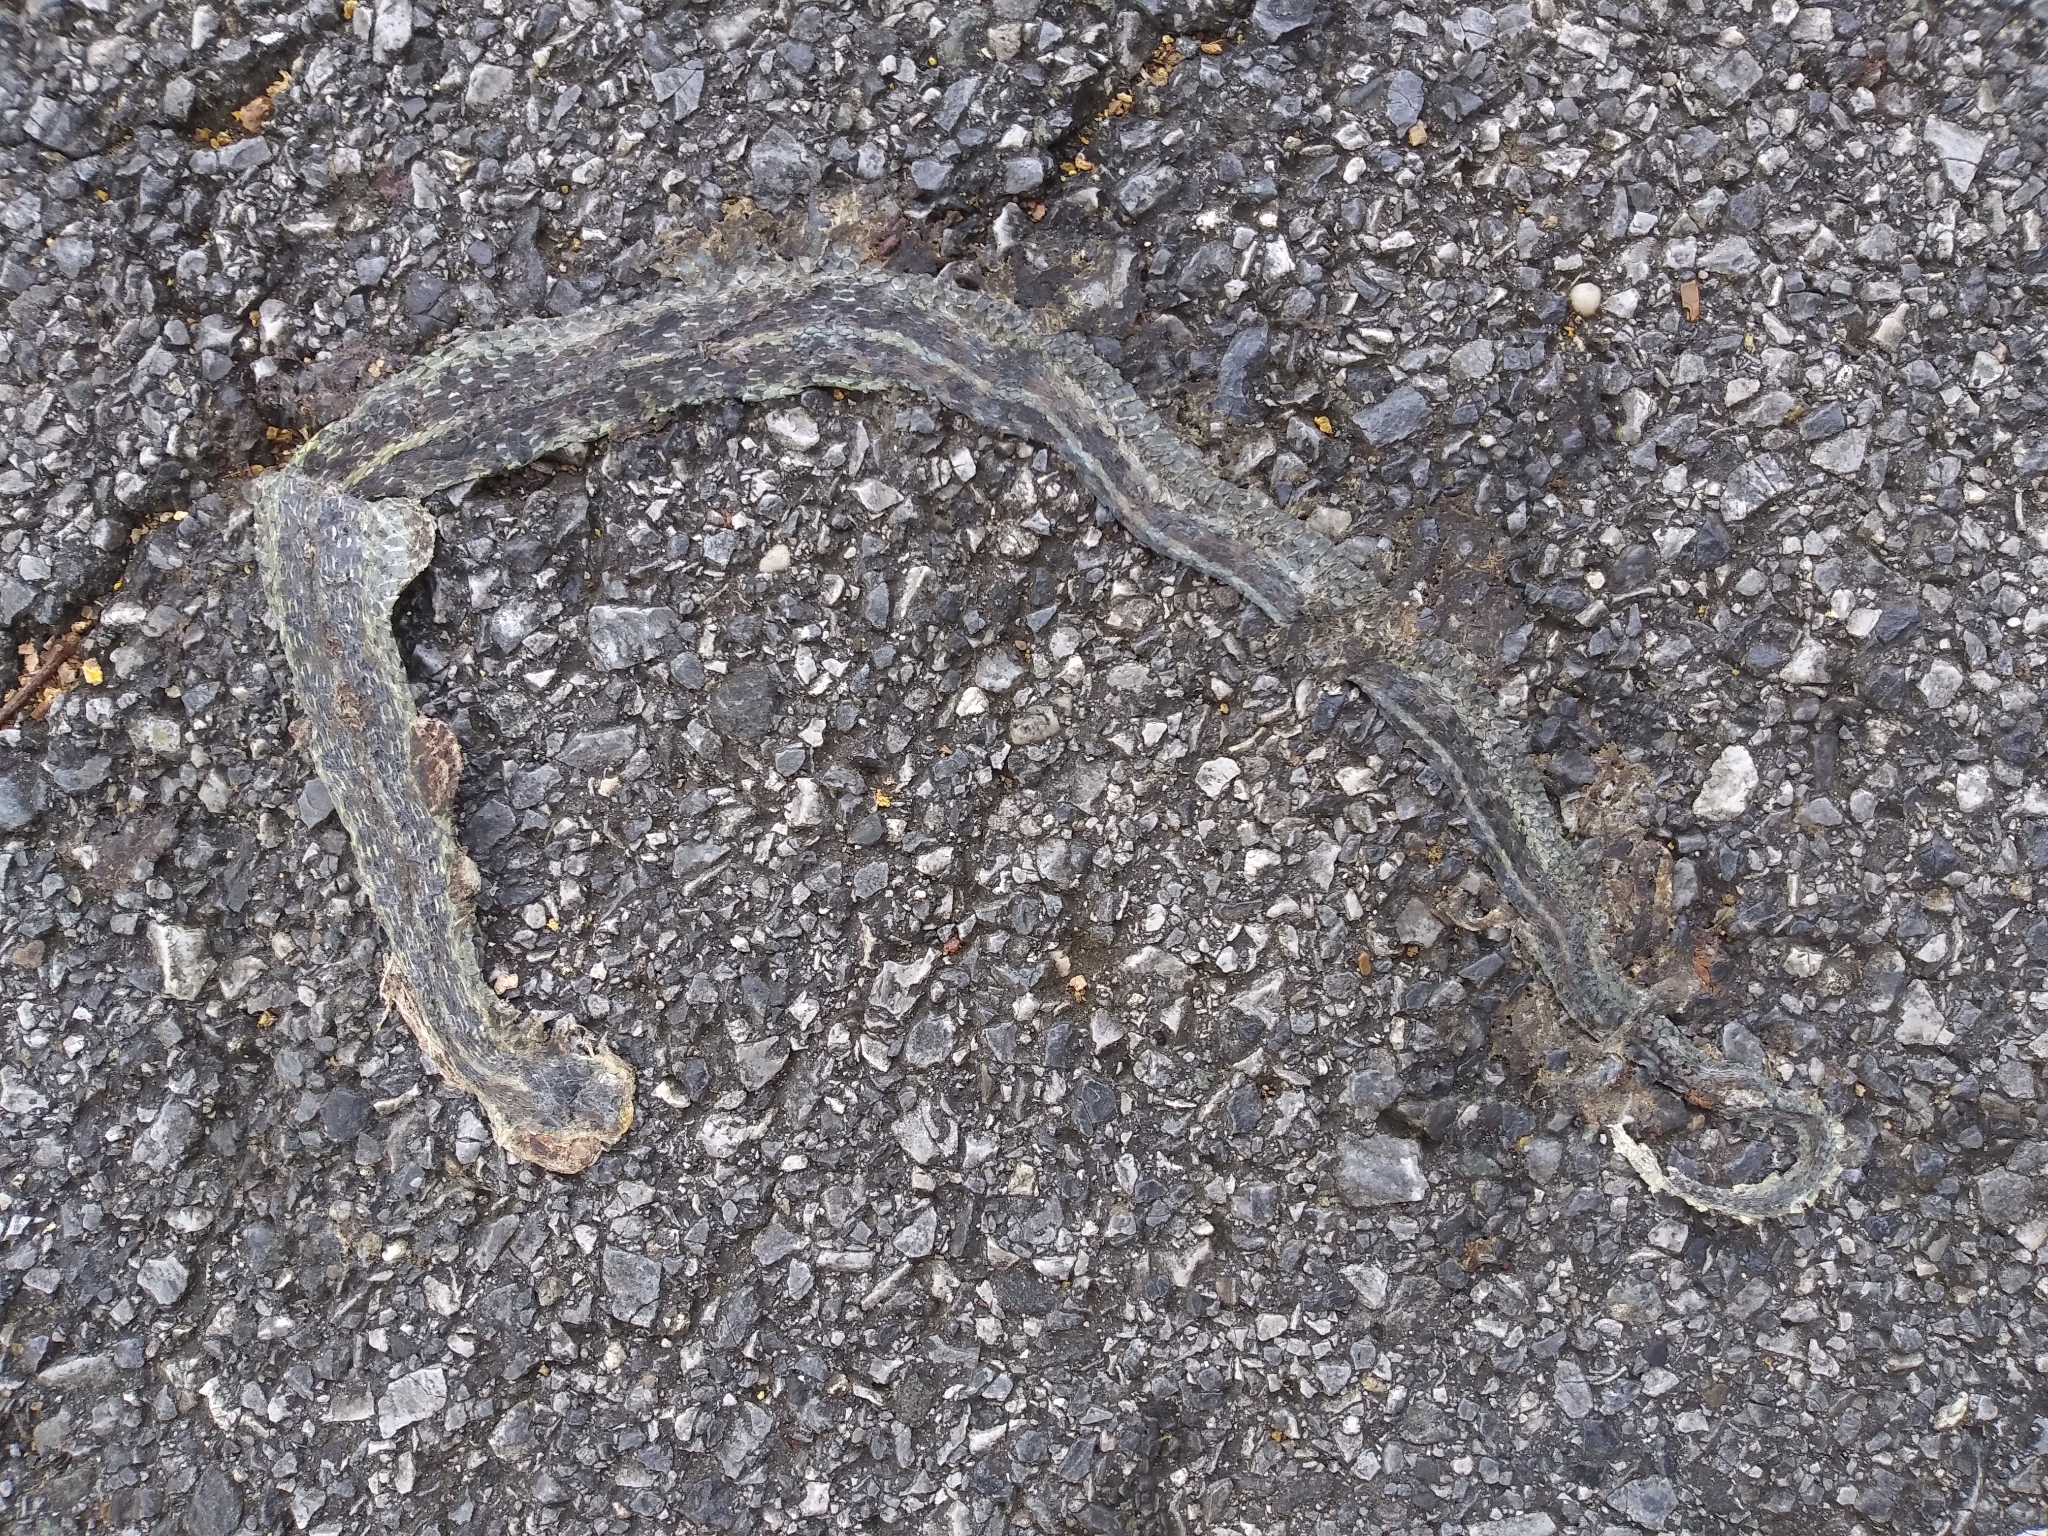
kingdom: Animalia
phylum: Chordata
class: Squamata
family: Colubridae
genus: Thamnophis
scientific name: Thamnophis sirtalis
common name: Common garter snake
